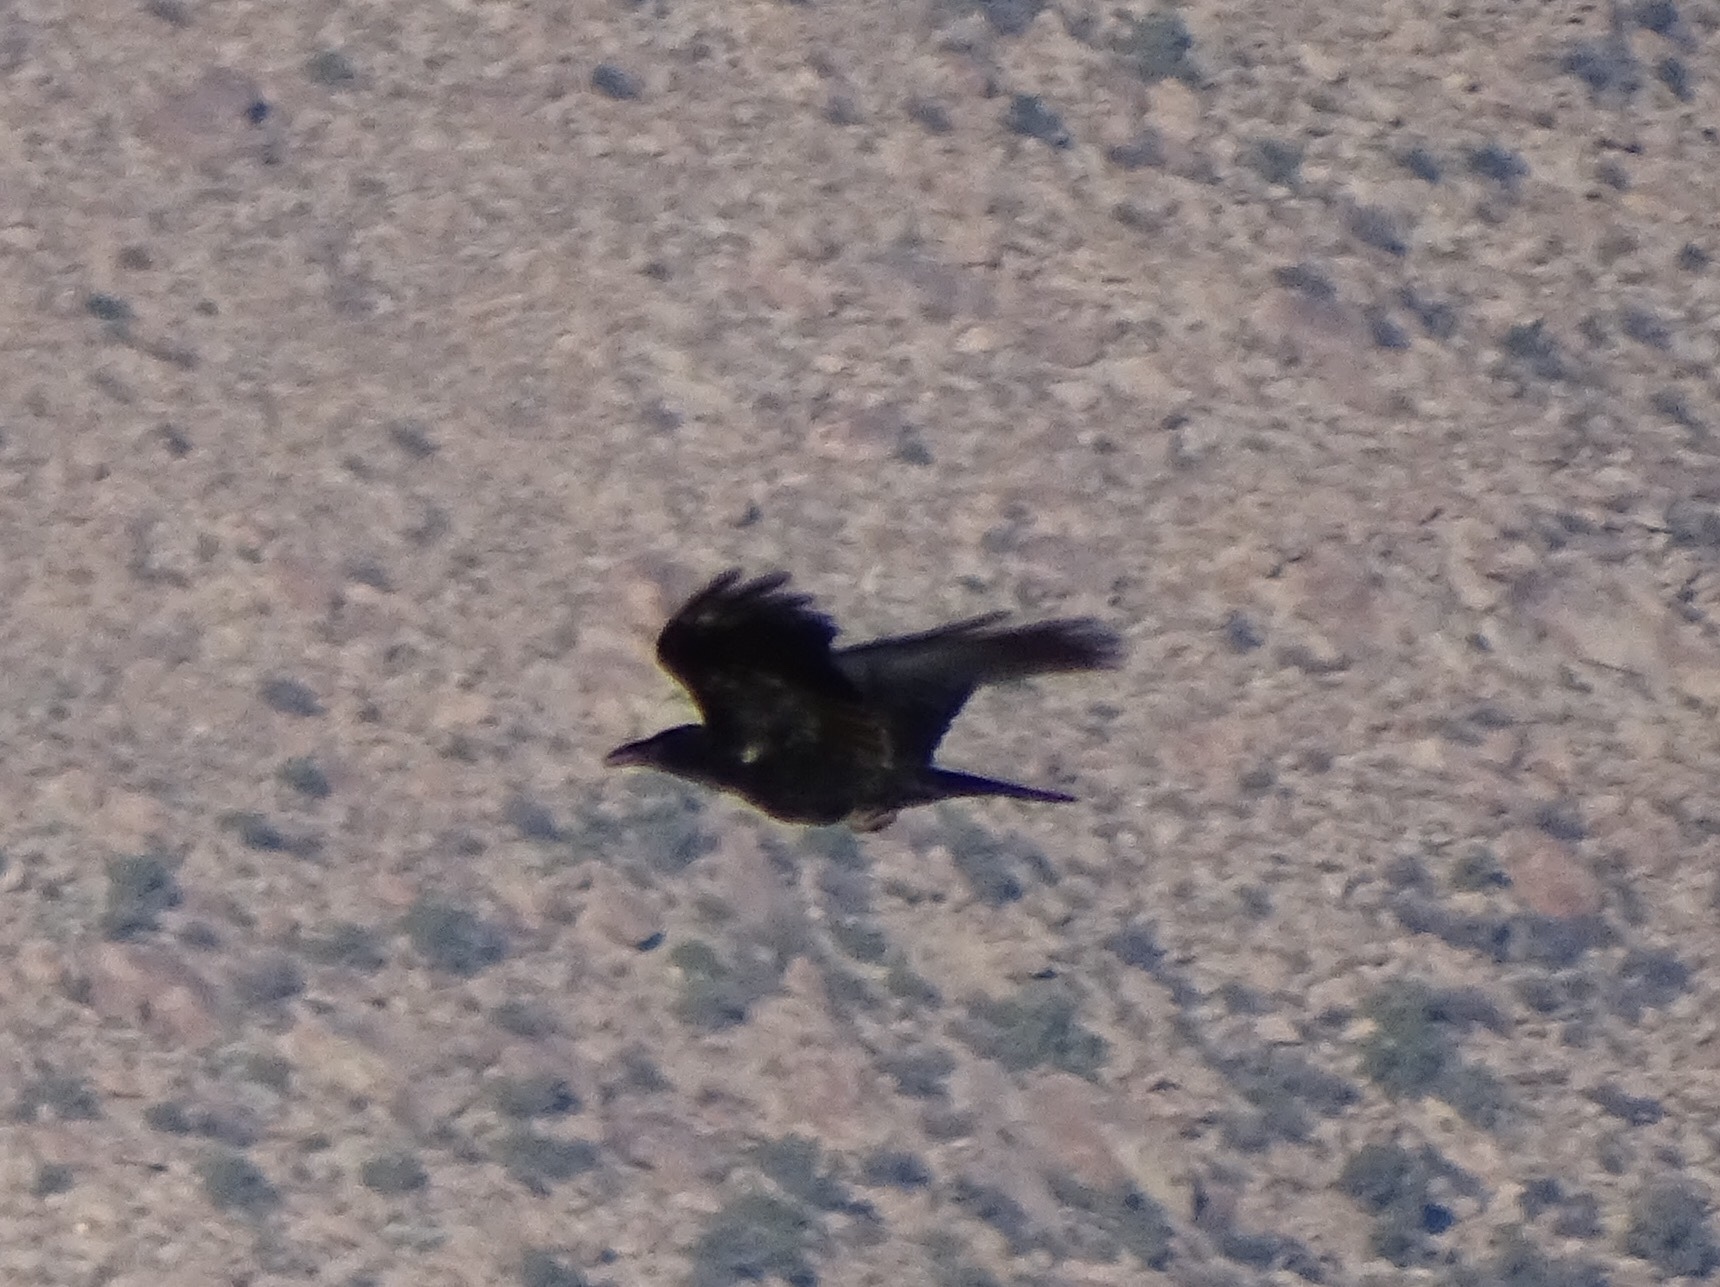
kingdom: Animalia
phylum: Chordata
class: Aves
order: Passeriformes
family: Corvidae
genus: Corvus
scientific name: Corvus corax
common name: Common raven
